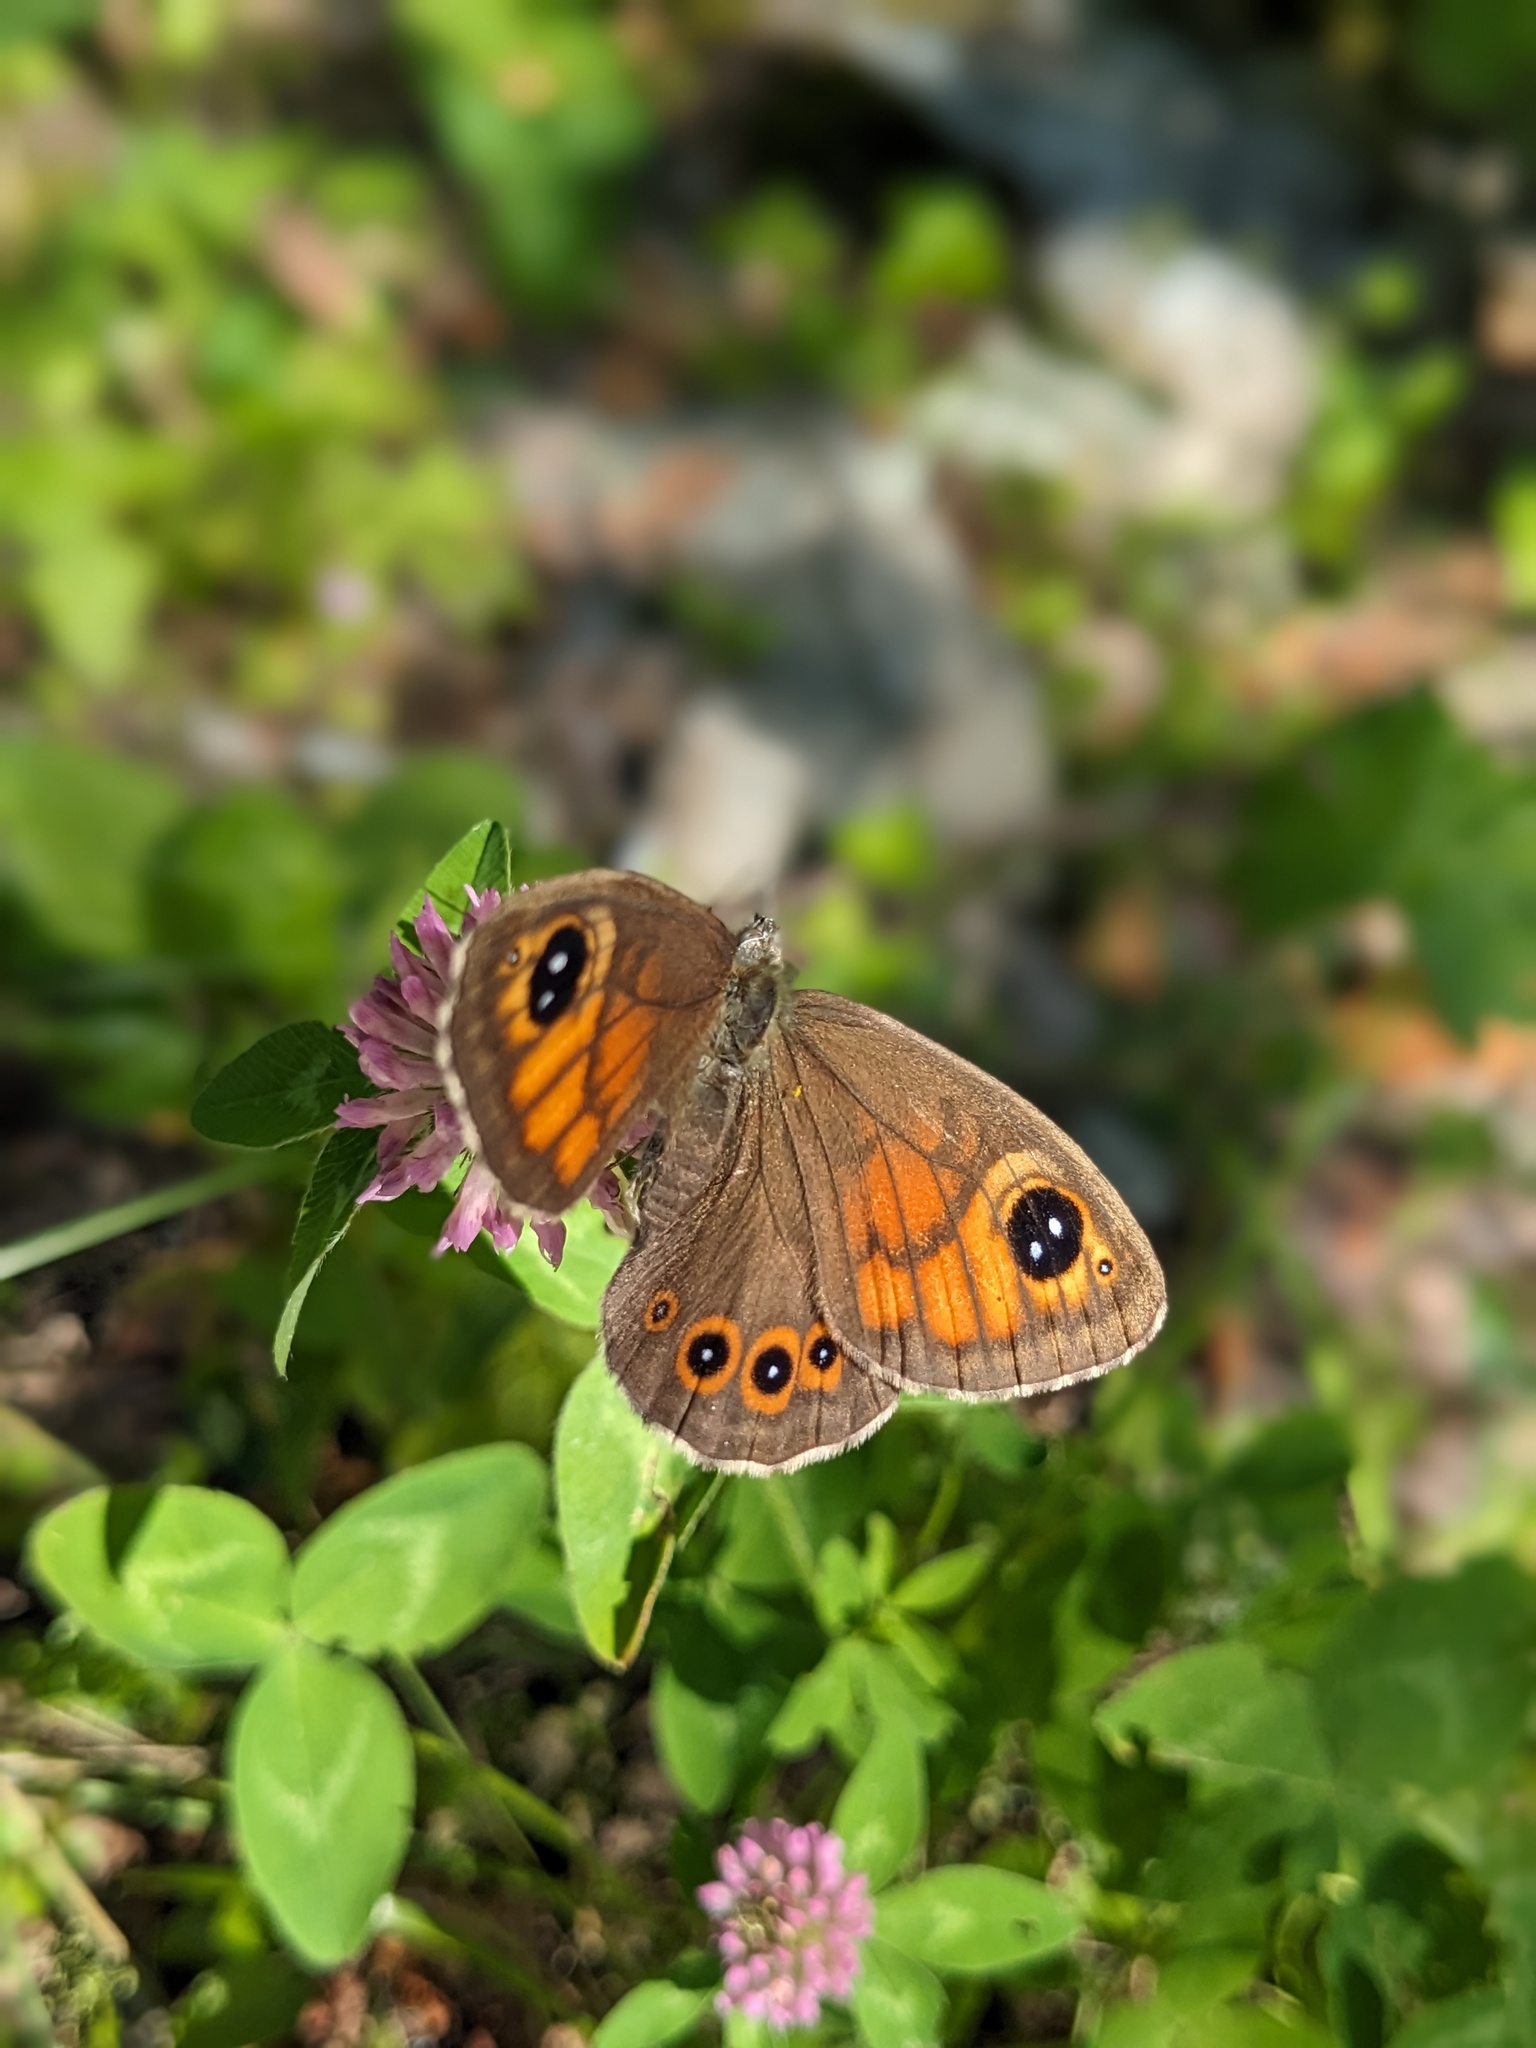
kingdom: Animalia
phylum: Arthropoda
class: Insecta
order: Lepidoptera
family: Nymphalidae
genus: Pararge
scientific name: Pararge Lasiommata maera
